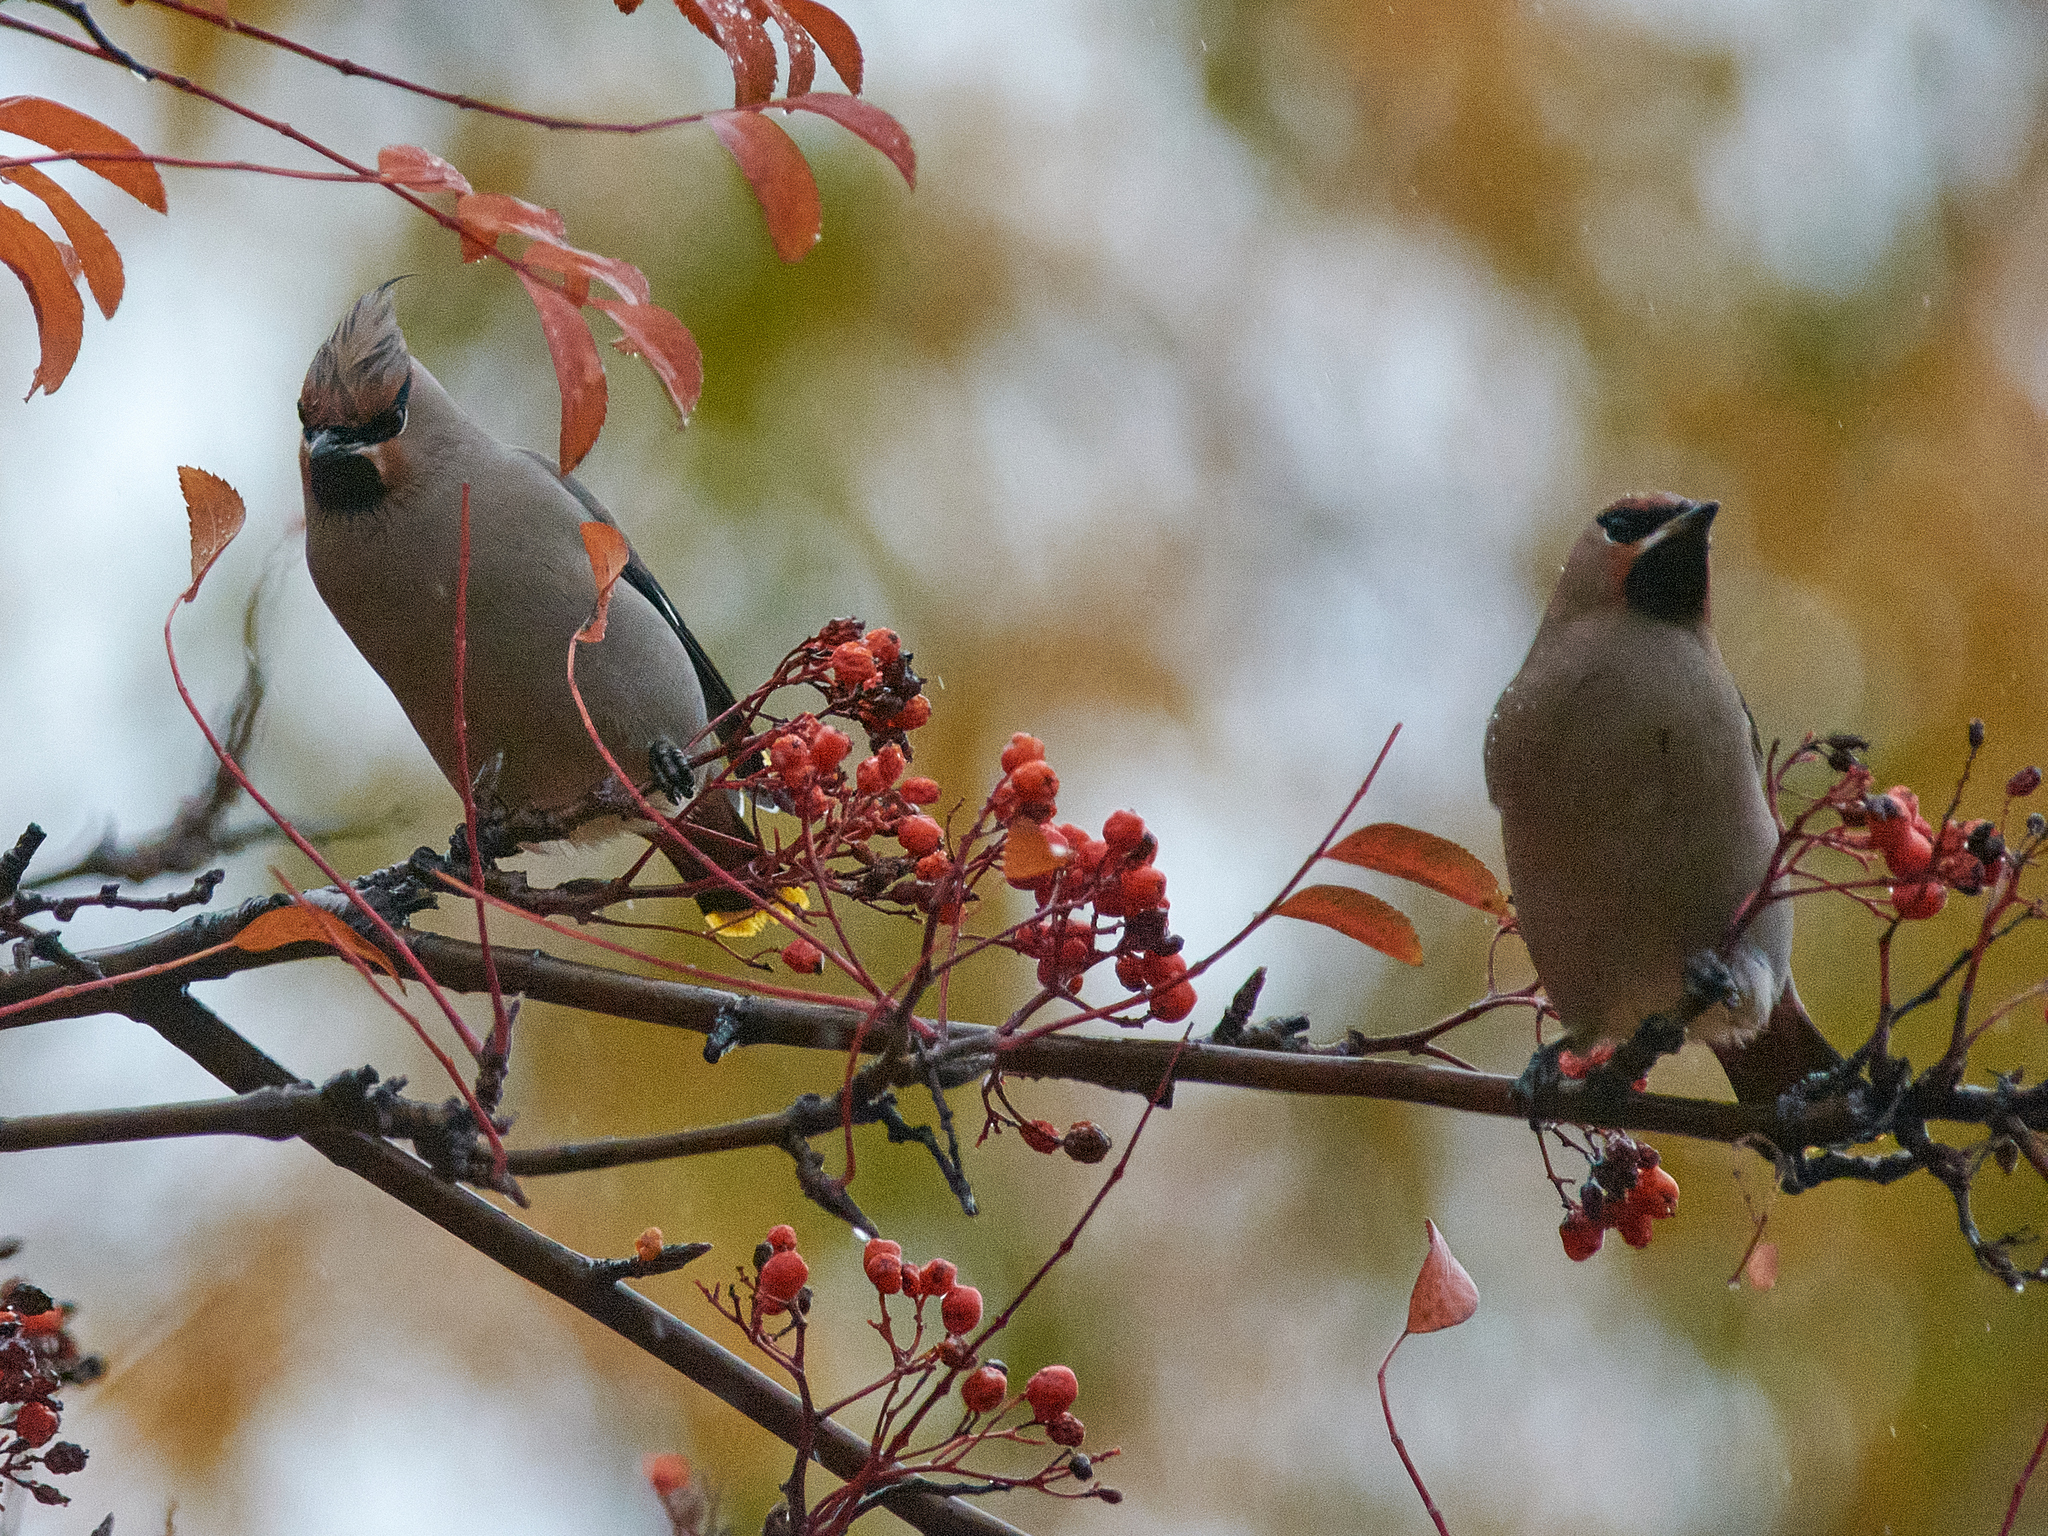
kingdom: Animalia
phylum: Chordata
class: Aves
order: Passeriformes
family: Bombycillidae
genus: Bombycilla
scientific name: Bombycilla garrulus
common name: Bohemian waxwing
